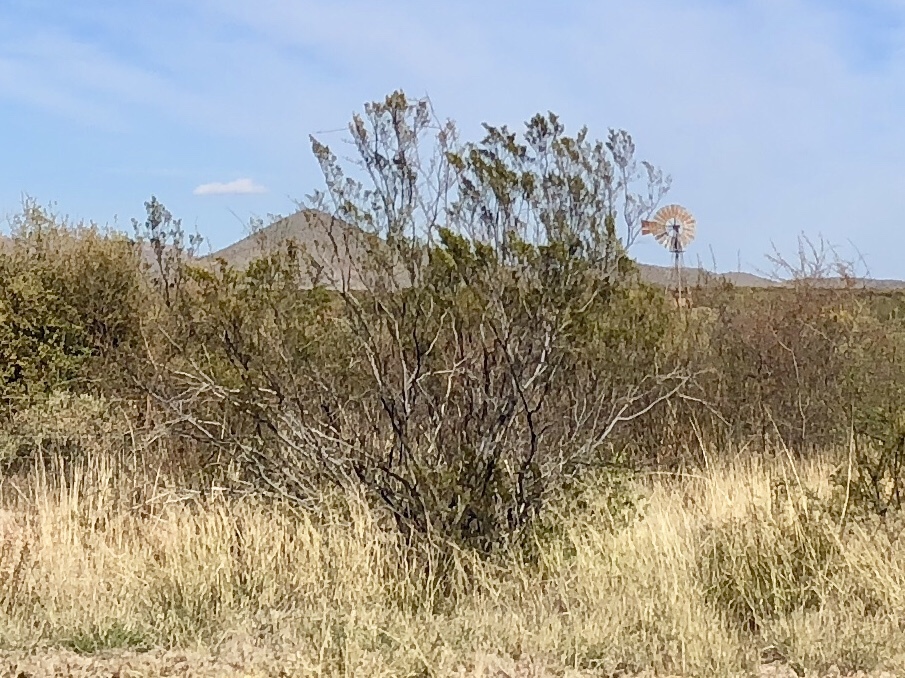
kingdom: Plantae
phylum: Tracheophyta
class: Magnoliopsida
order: Zygophyllales
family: Zygophyllaceae
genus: Larrea
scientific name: Larrea tridentata
